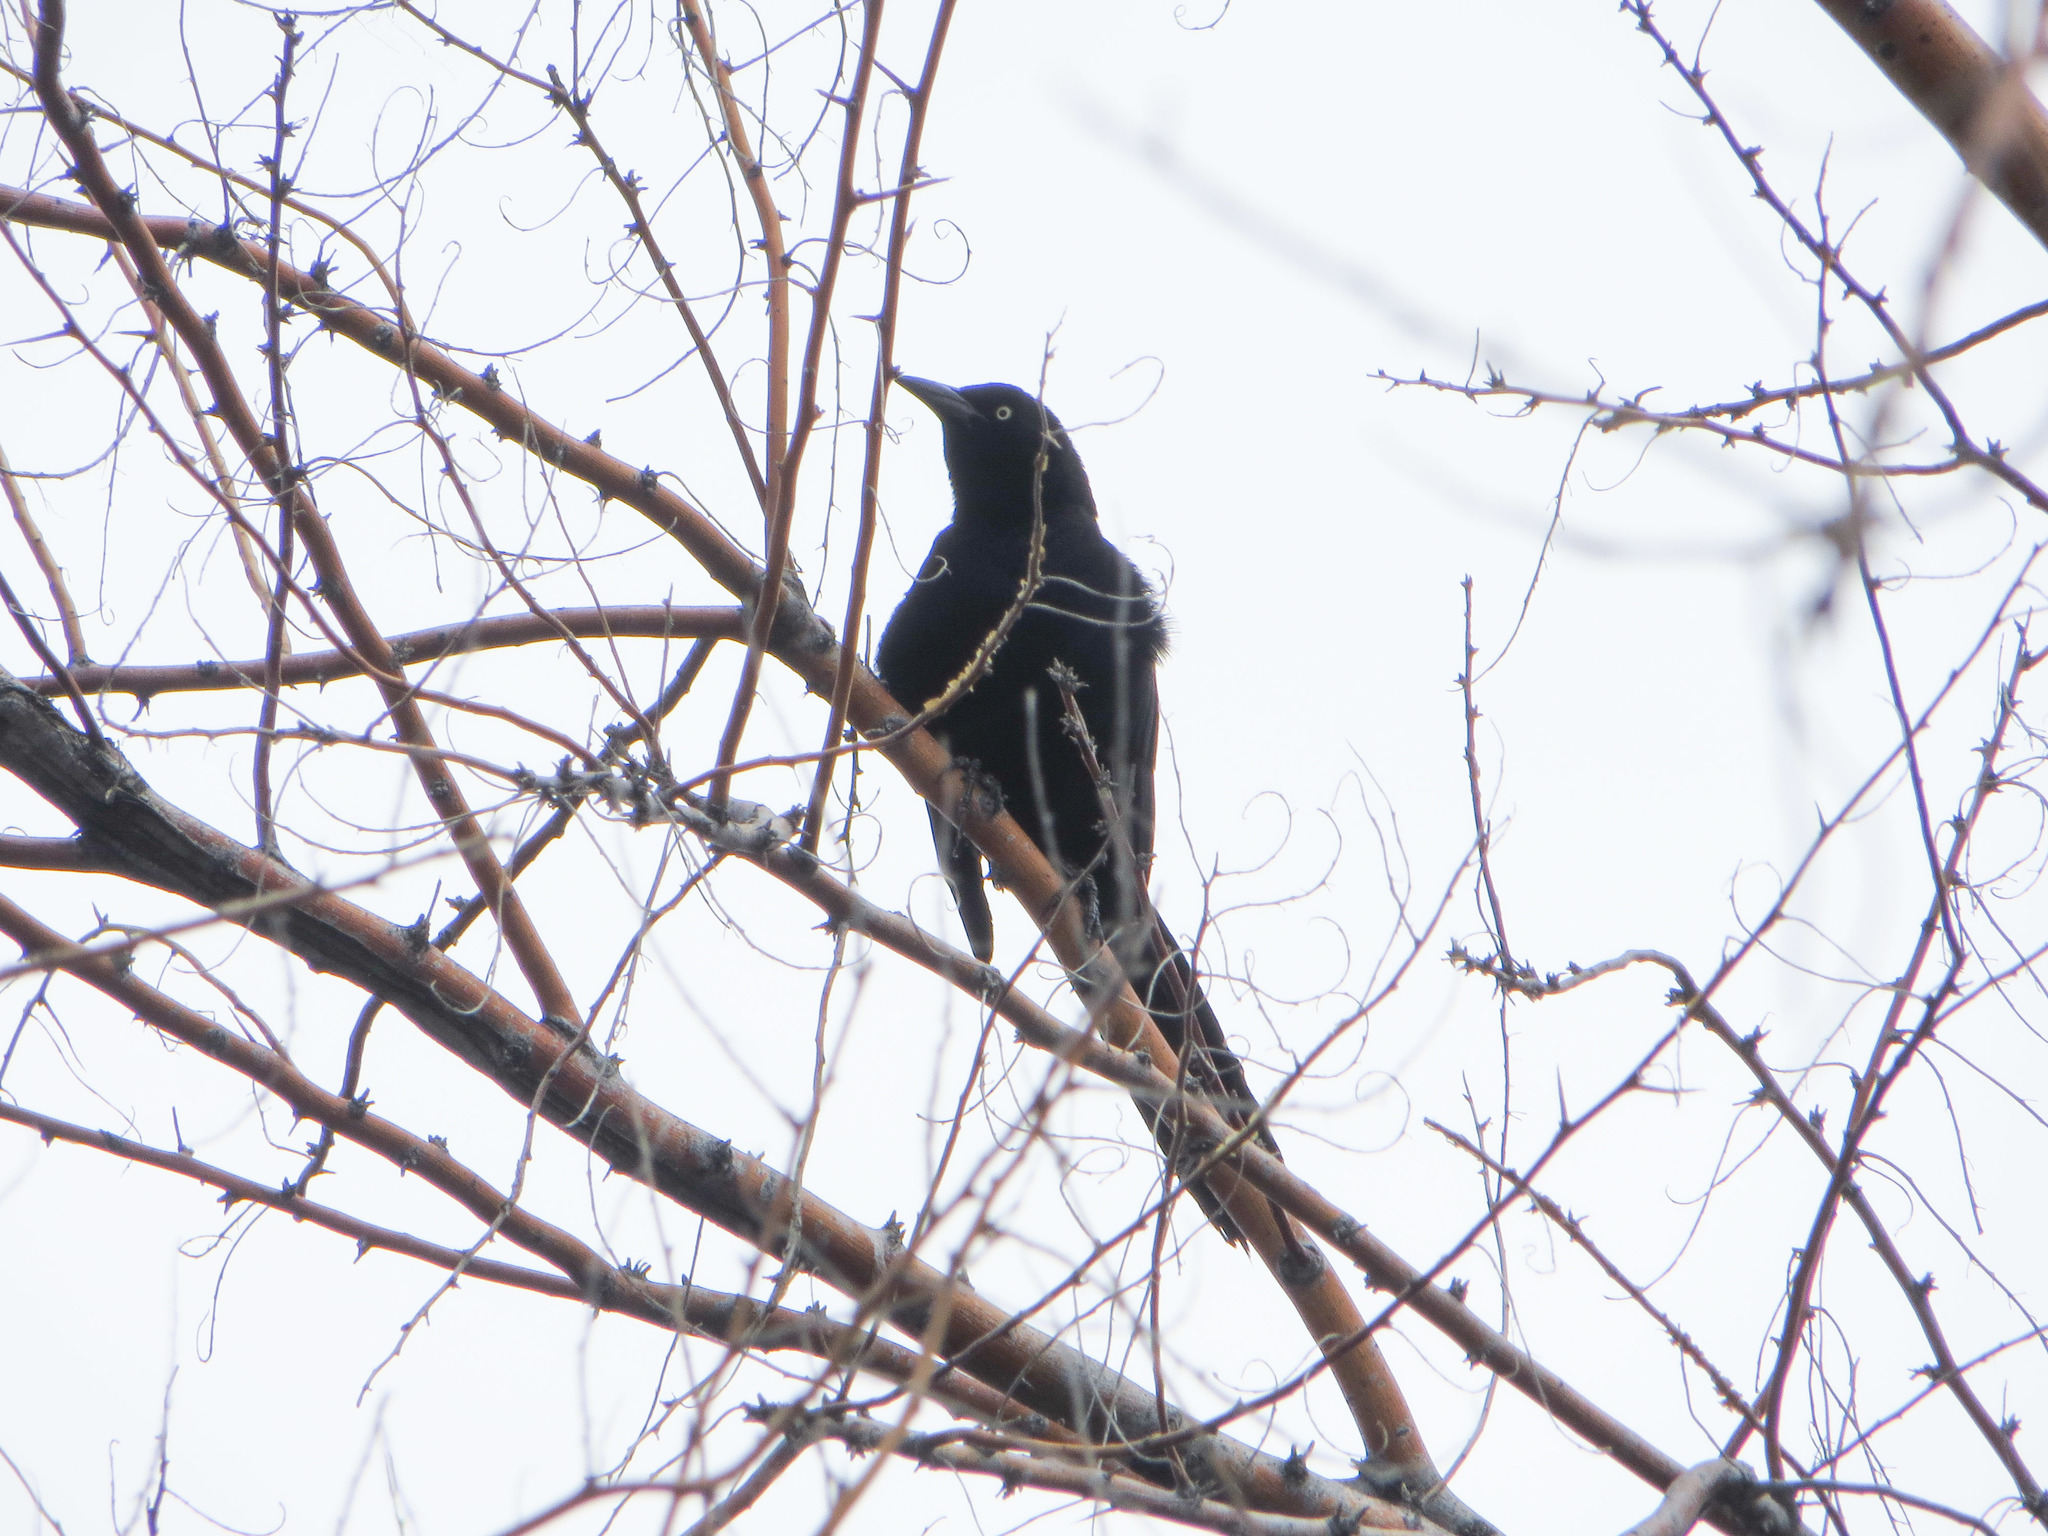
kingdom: Animalia
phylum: Chordata
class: Aves
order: Passeriformes
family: Icteridae
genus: Quiscalus
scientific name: Quiscalus mexicanus
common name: Great-tailed grackle
